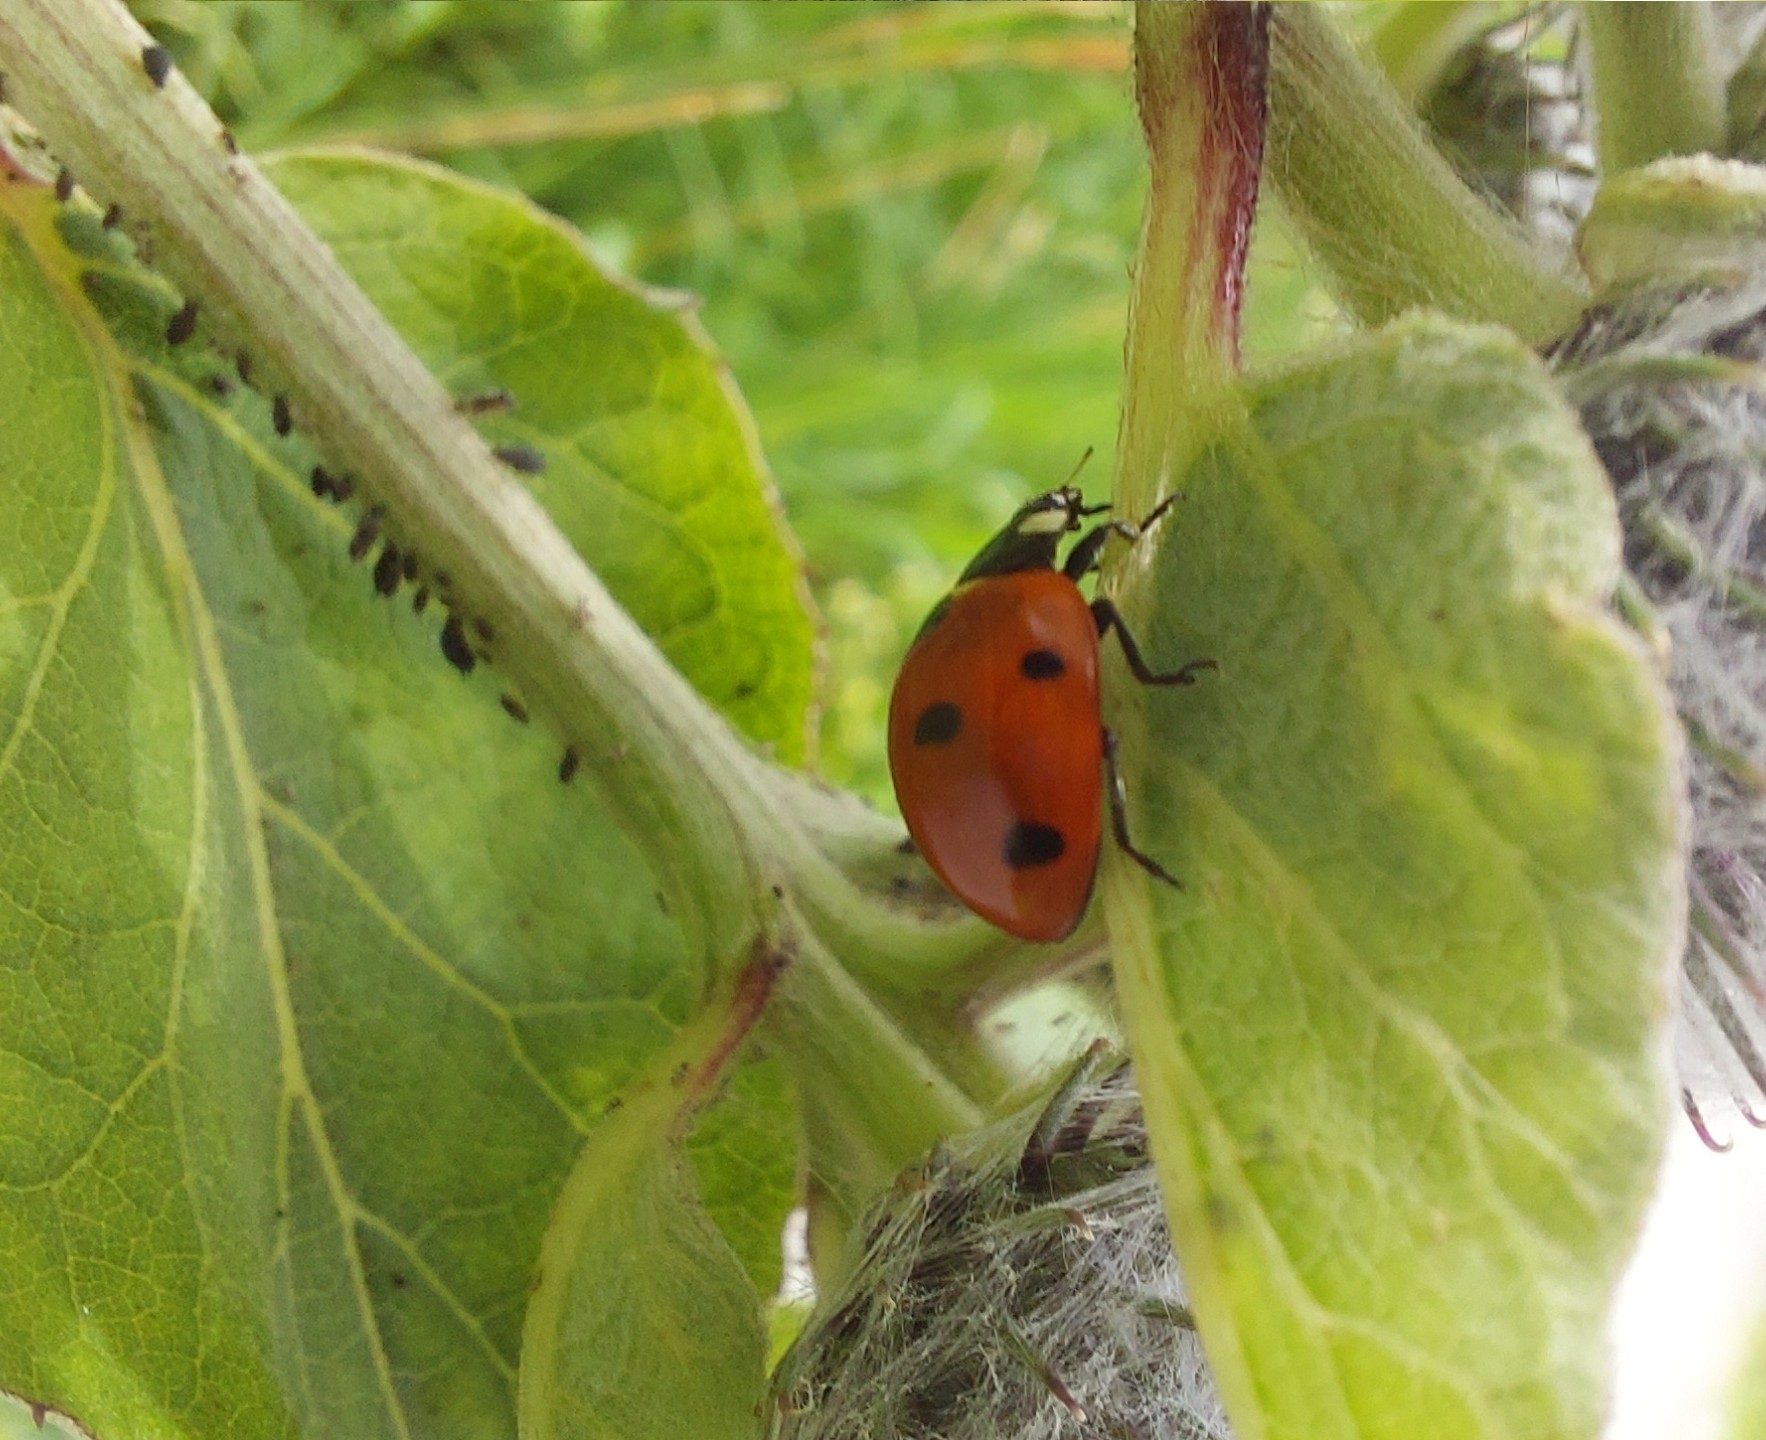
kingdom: Animalia
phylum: Arthropoda
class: Insecta
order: Coleoptera
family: Coccinellidae
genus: Coccinella
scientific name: Coccinella septempunctata
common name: Sevenspotted lady beetle
